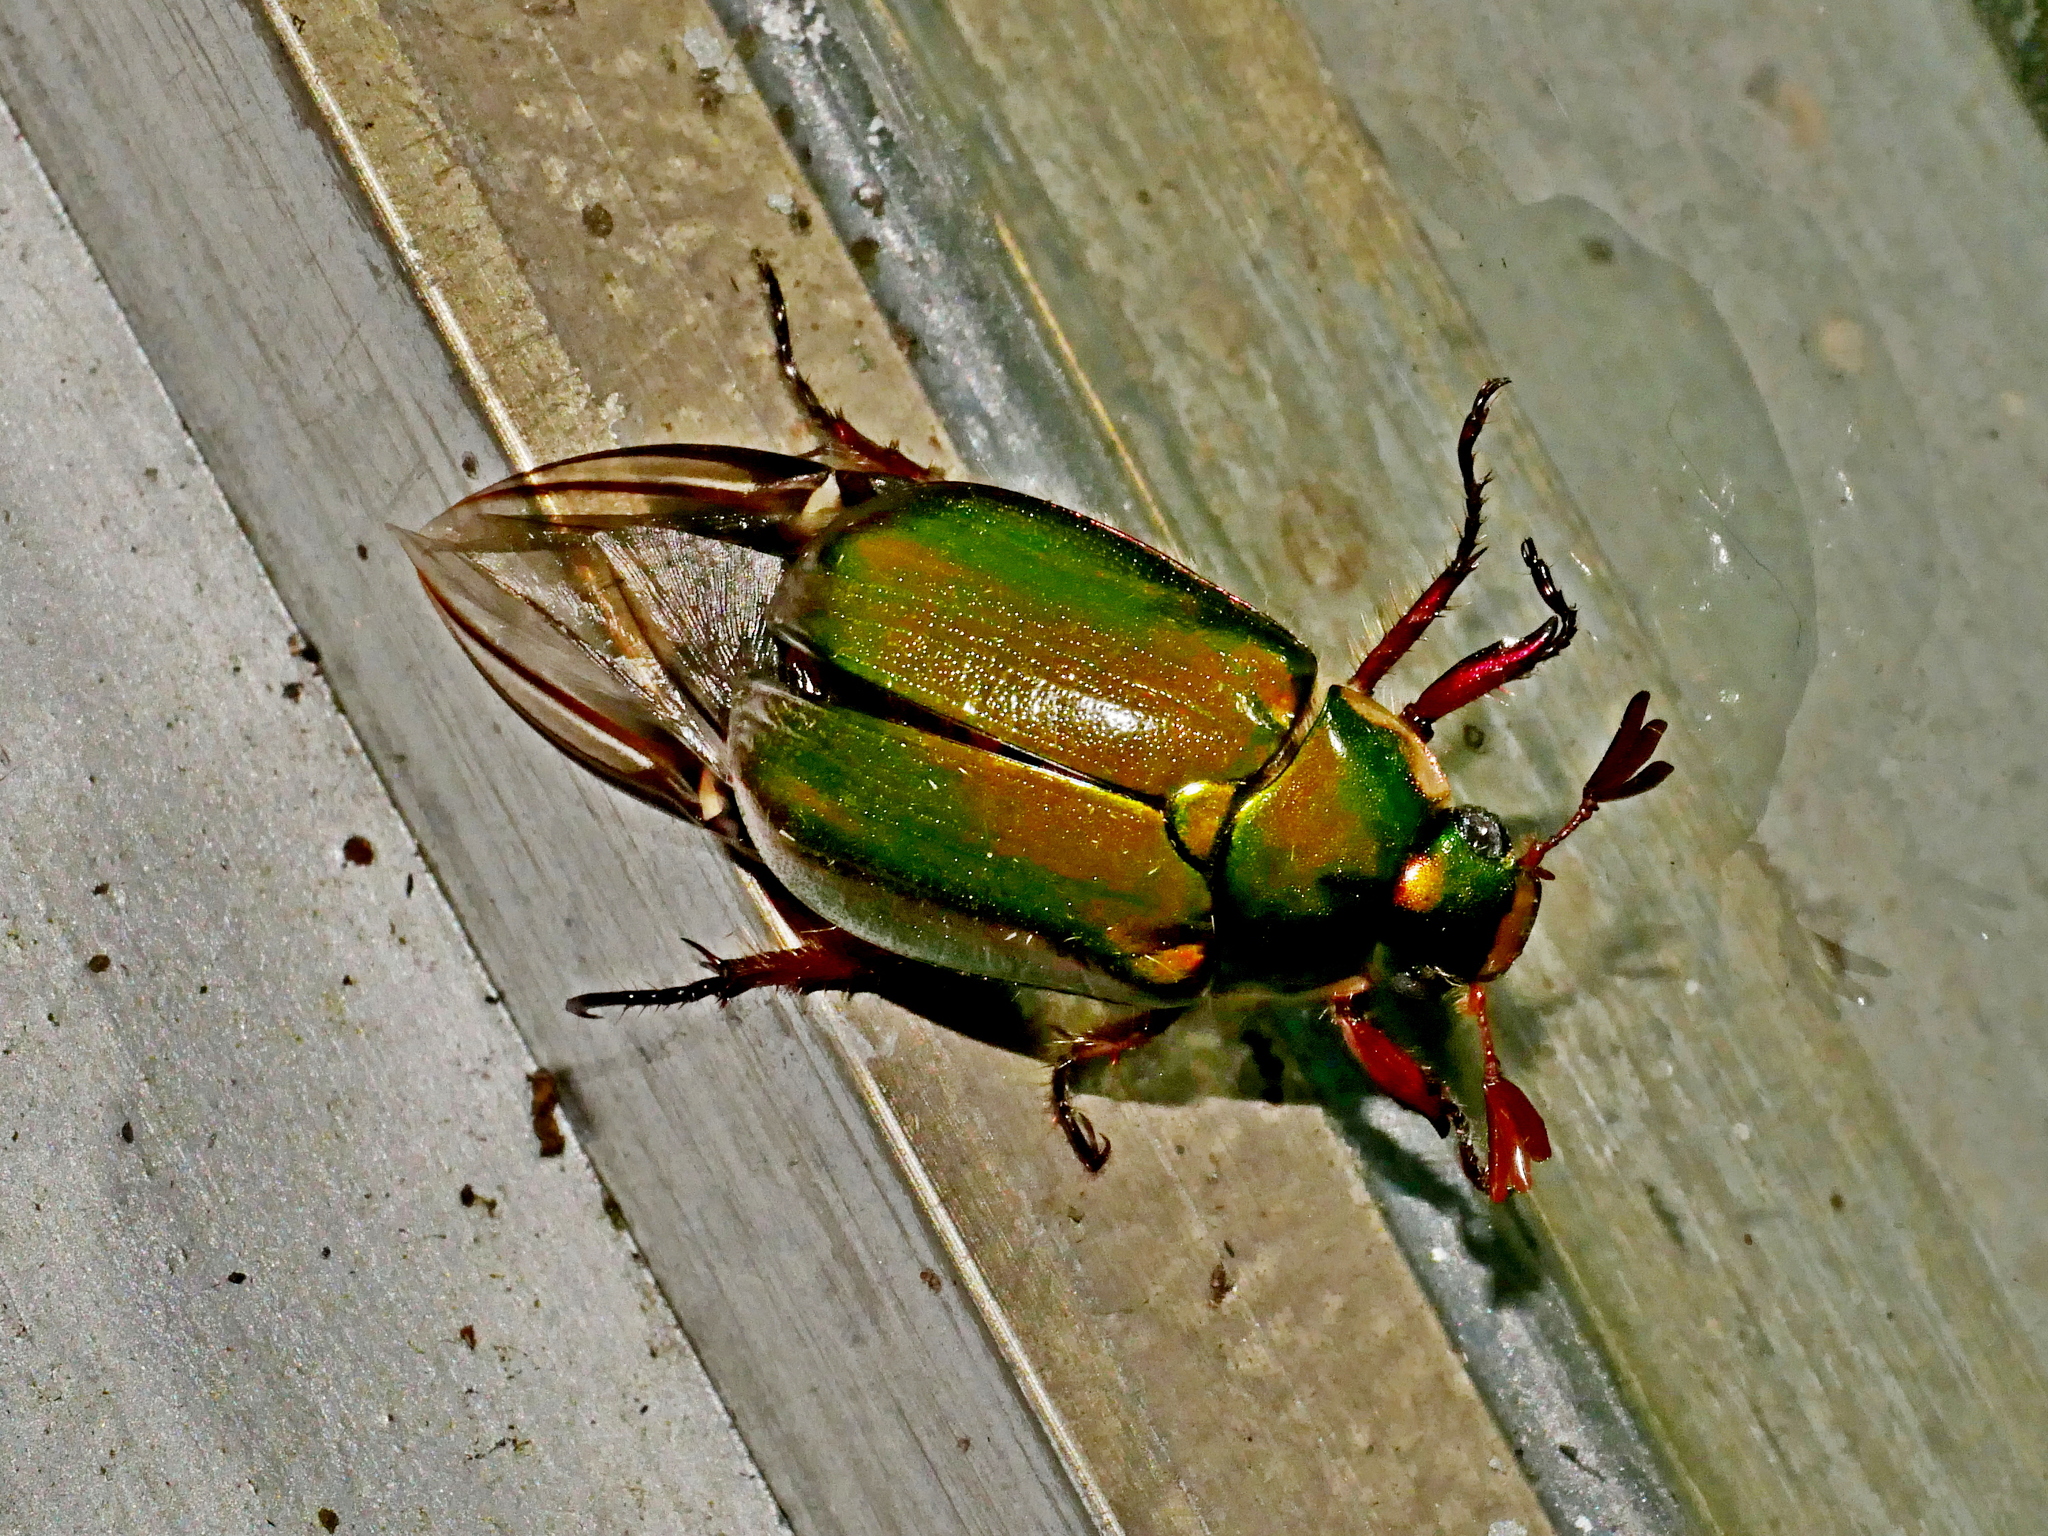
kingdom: Animalia
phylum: Arthropoda
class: Insecta
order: Coleoptera
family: Scarabaeidae
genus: Mimela
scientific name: Mimela passerinii
